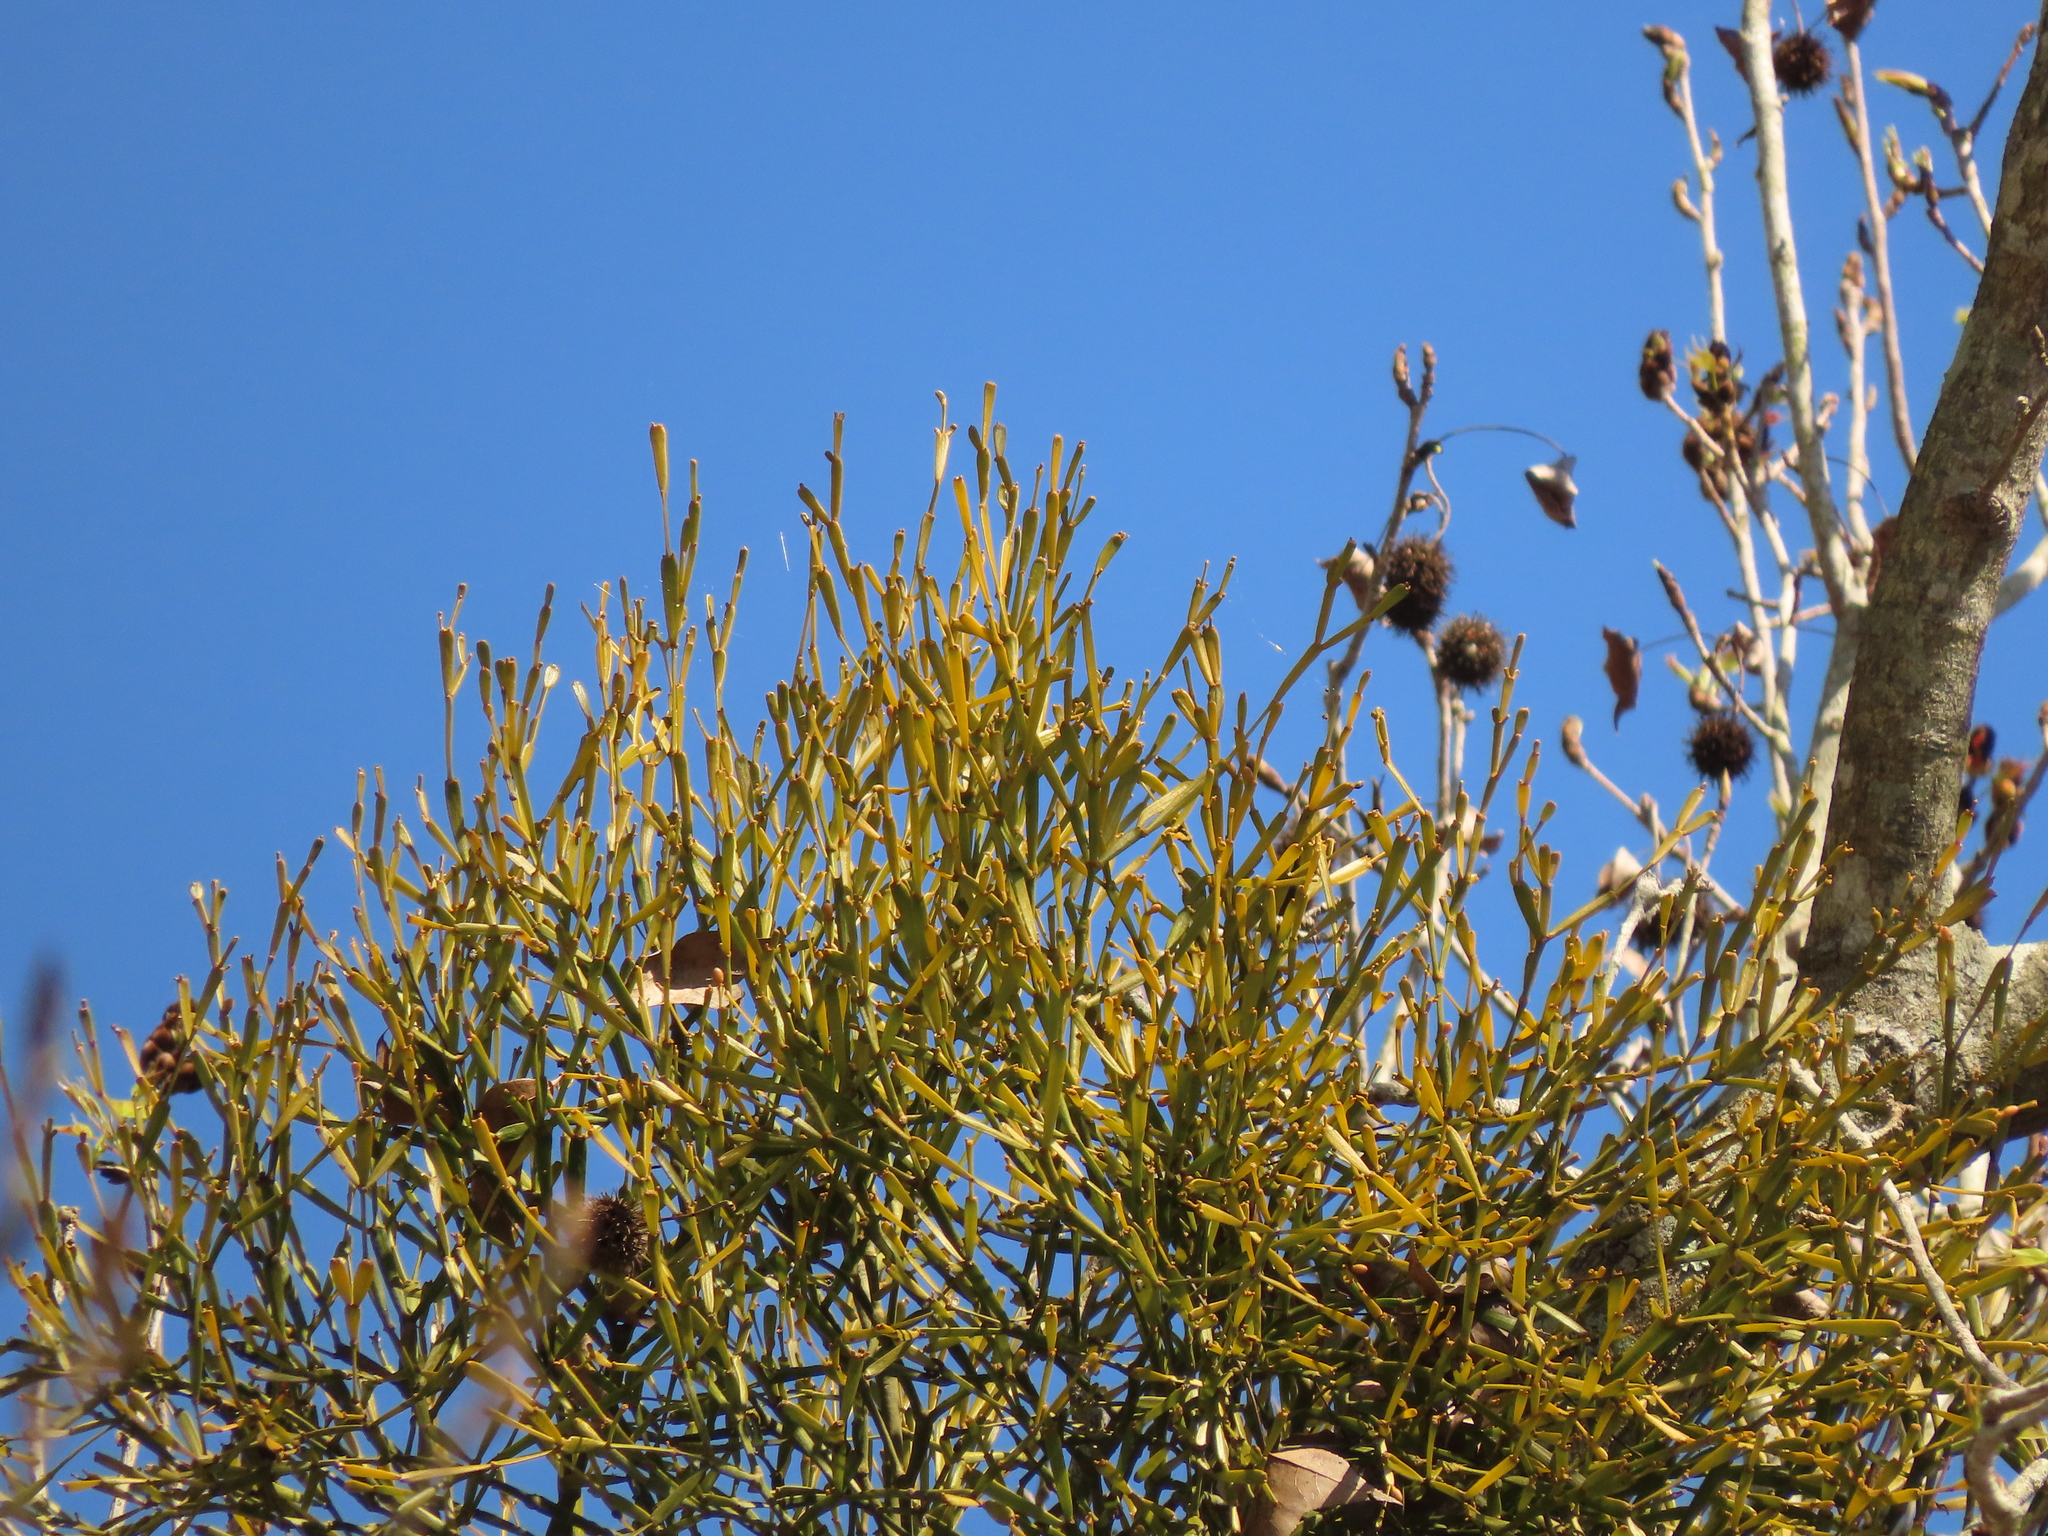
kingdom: Plantae
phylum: Tracheophyta
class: Magnoliopsida
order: Santalales
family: Viscaceae
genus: Viscum
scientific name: Viscum liquidambaricola
